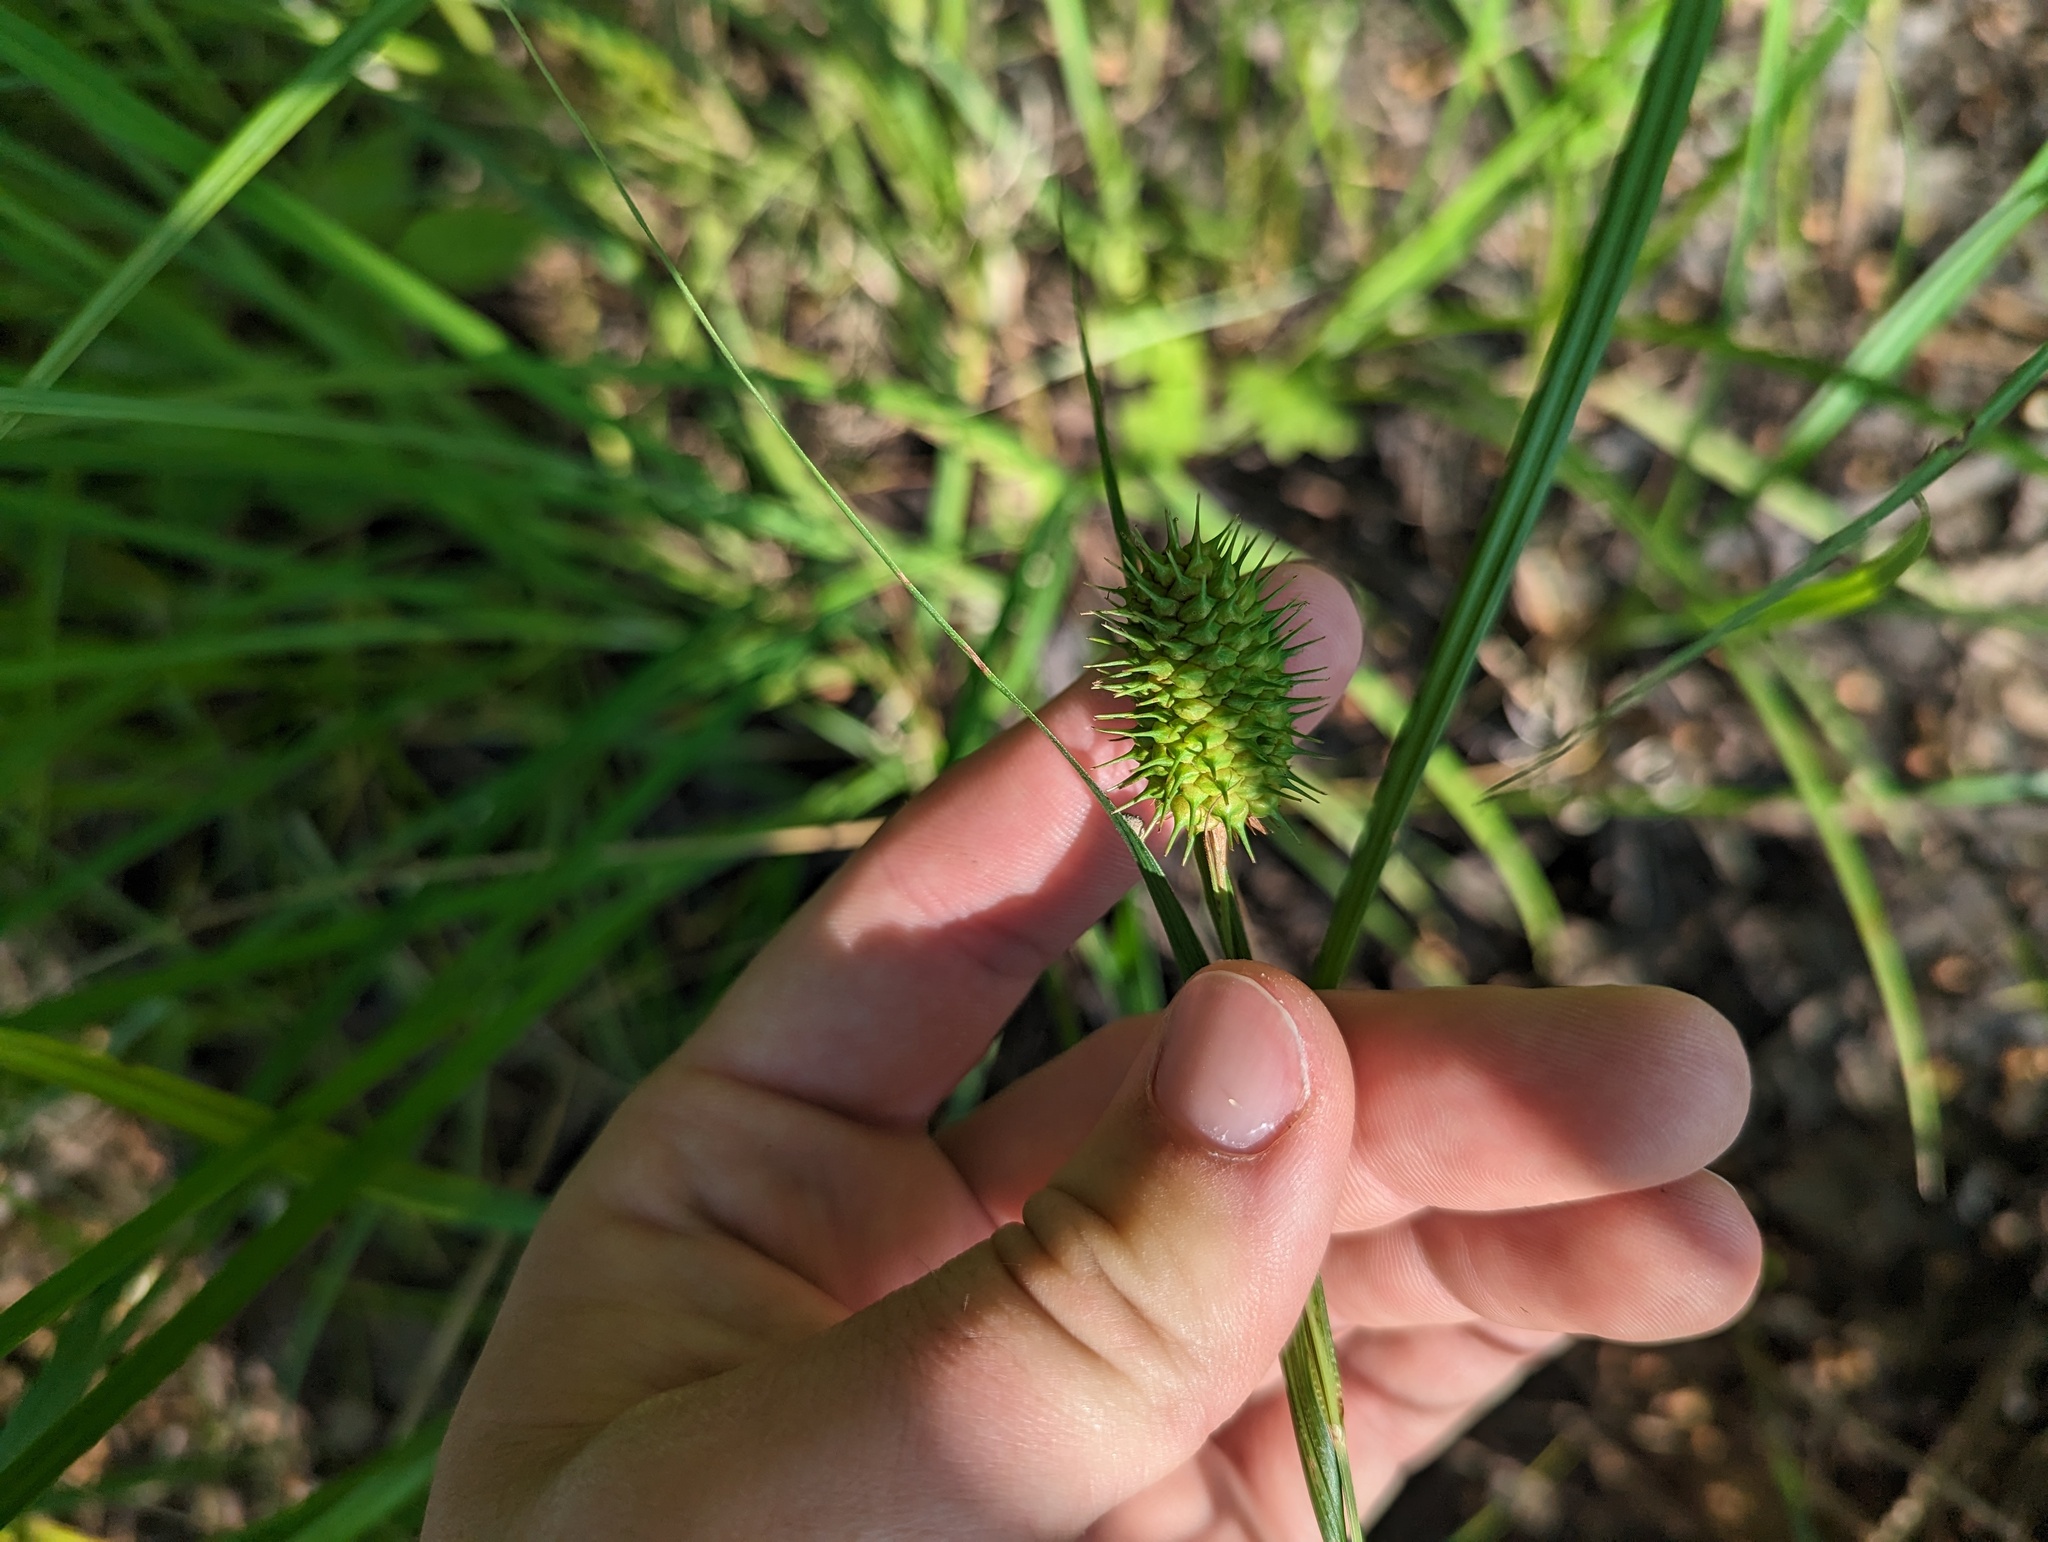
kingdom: Plantae
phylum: Tracheophyta
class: Liliopsida
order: Poales
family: Cyperaceae
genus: Carex
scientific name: Carex squarrosa
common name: Narrow-leaved cattail sedge
